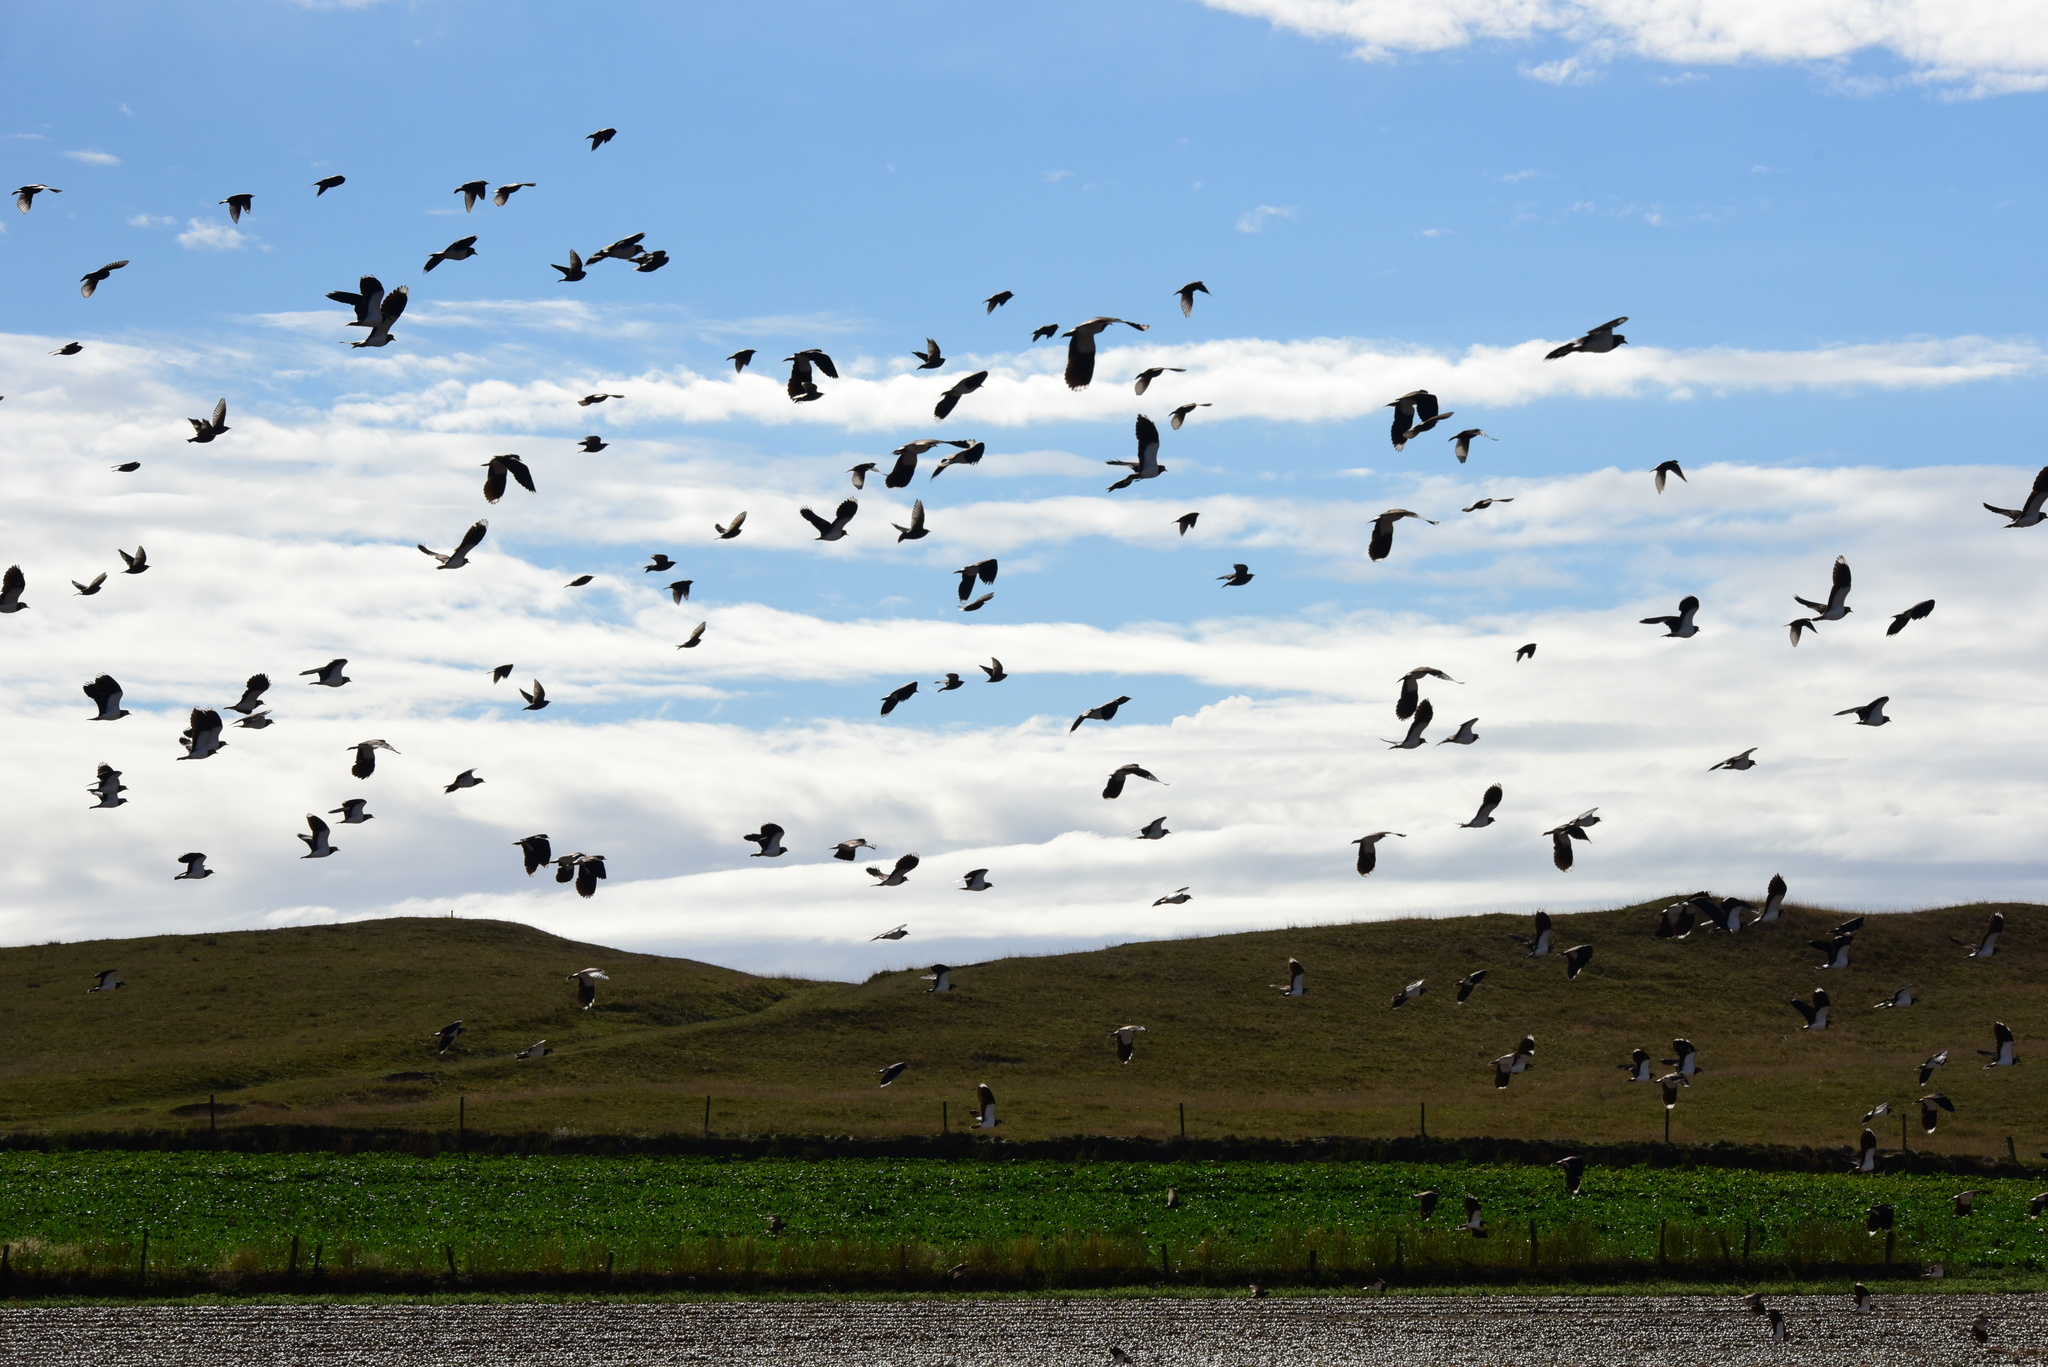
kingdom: Animalia
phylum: Chordata
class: Aves
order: Charadriiformes
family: Charadriidae
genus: Vanellus
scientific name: Vanellus vanellus
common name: Northern lapwing
